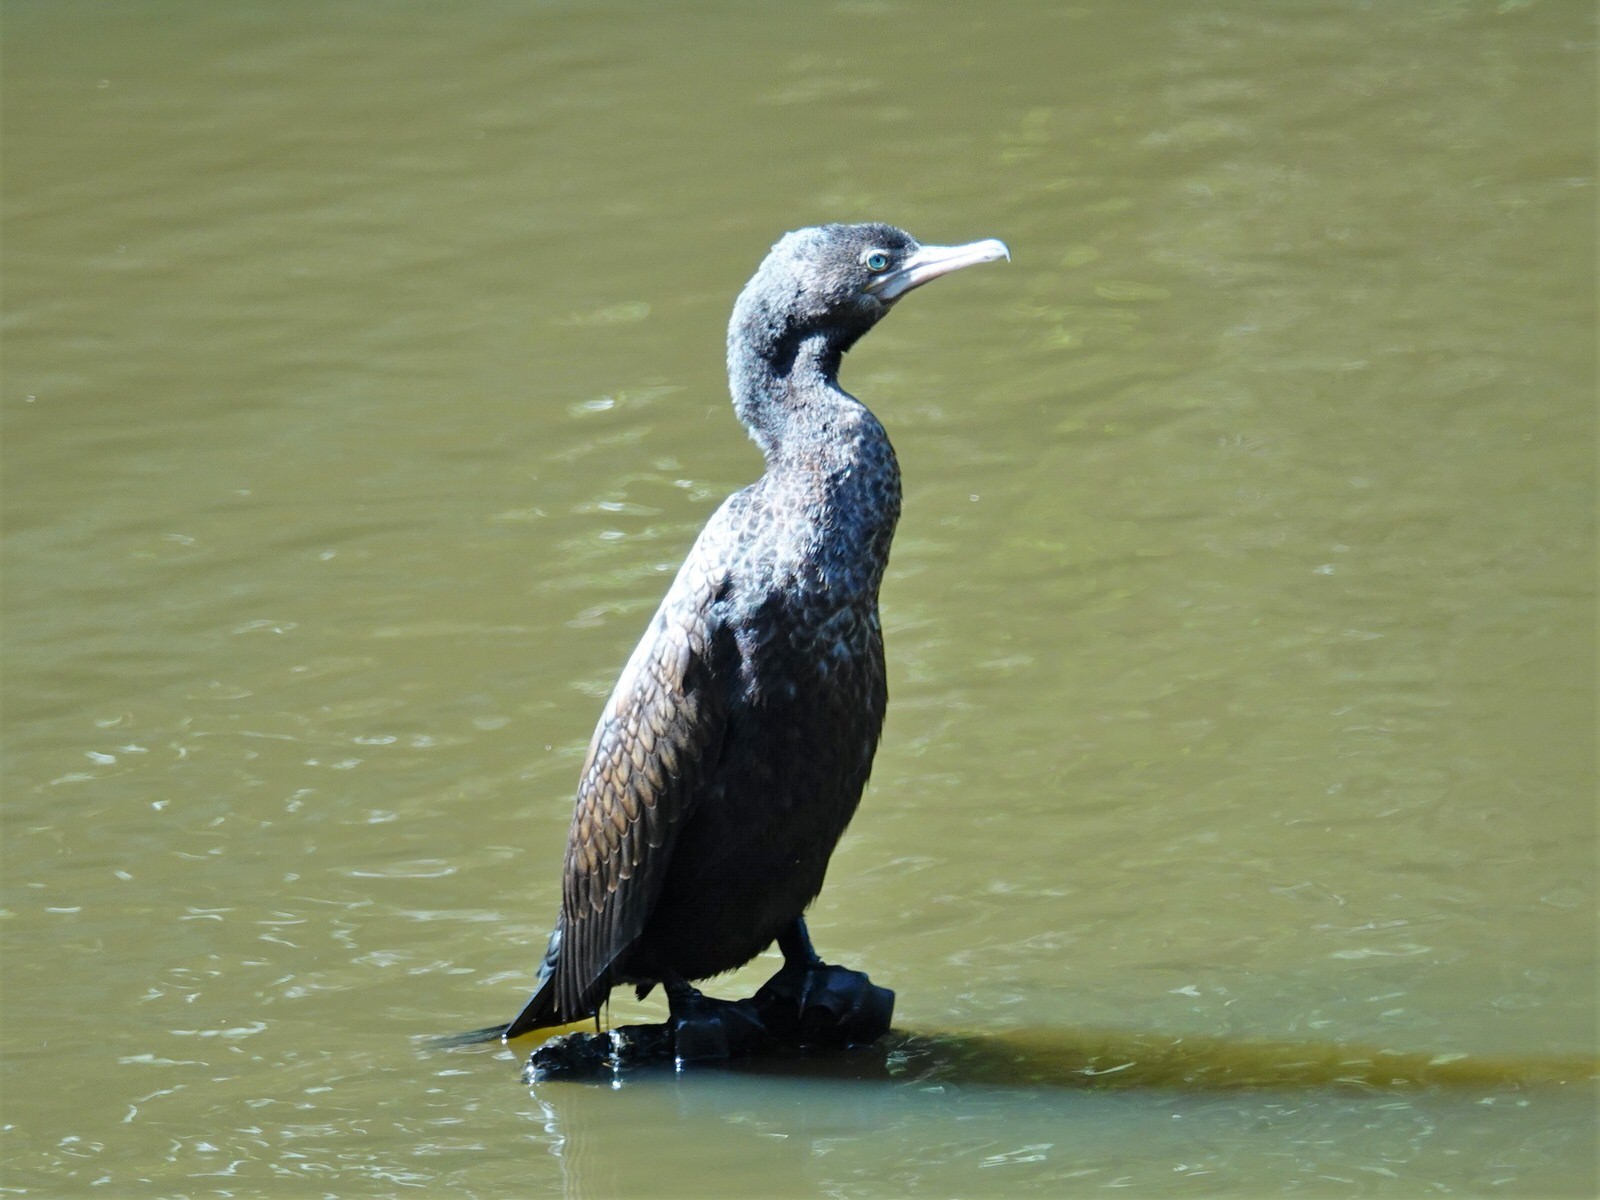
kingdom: Animalia
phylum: Chordata
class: Aves
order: Suliformes
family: Phalacrocoracidae
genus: Phalacrocorax
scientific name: Phalacrocorax sulcirostris
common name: Little black cormorant
